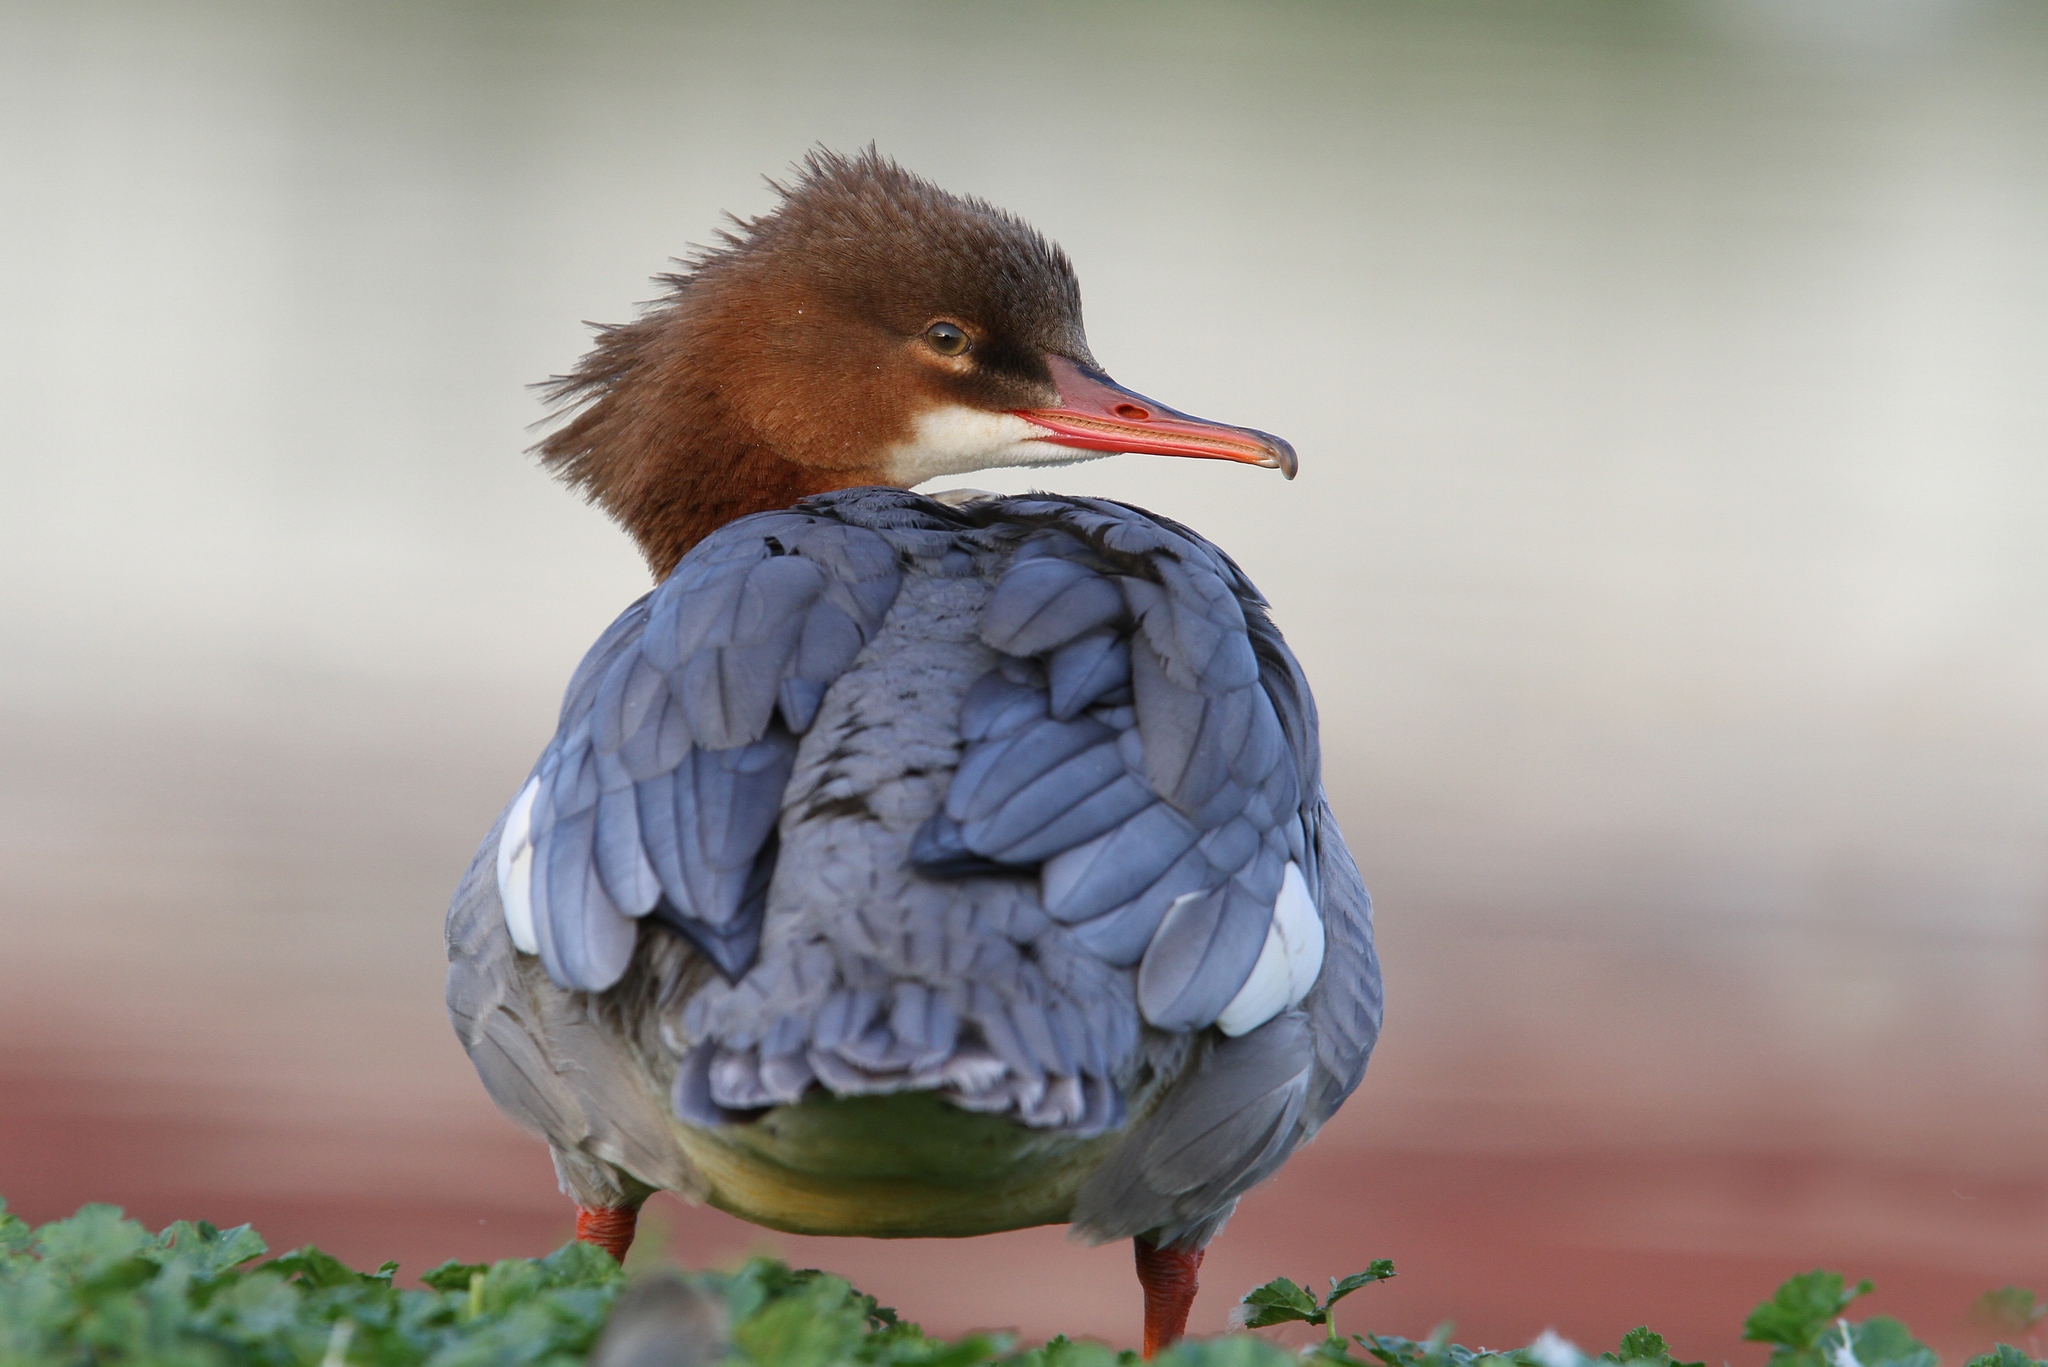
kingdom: Animalia
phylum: Chordata
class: Aves
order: Anseriformes
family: Anatidae
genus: Mergus
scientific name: Mergus merganser
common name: Common merganser
